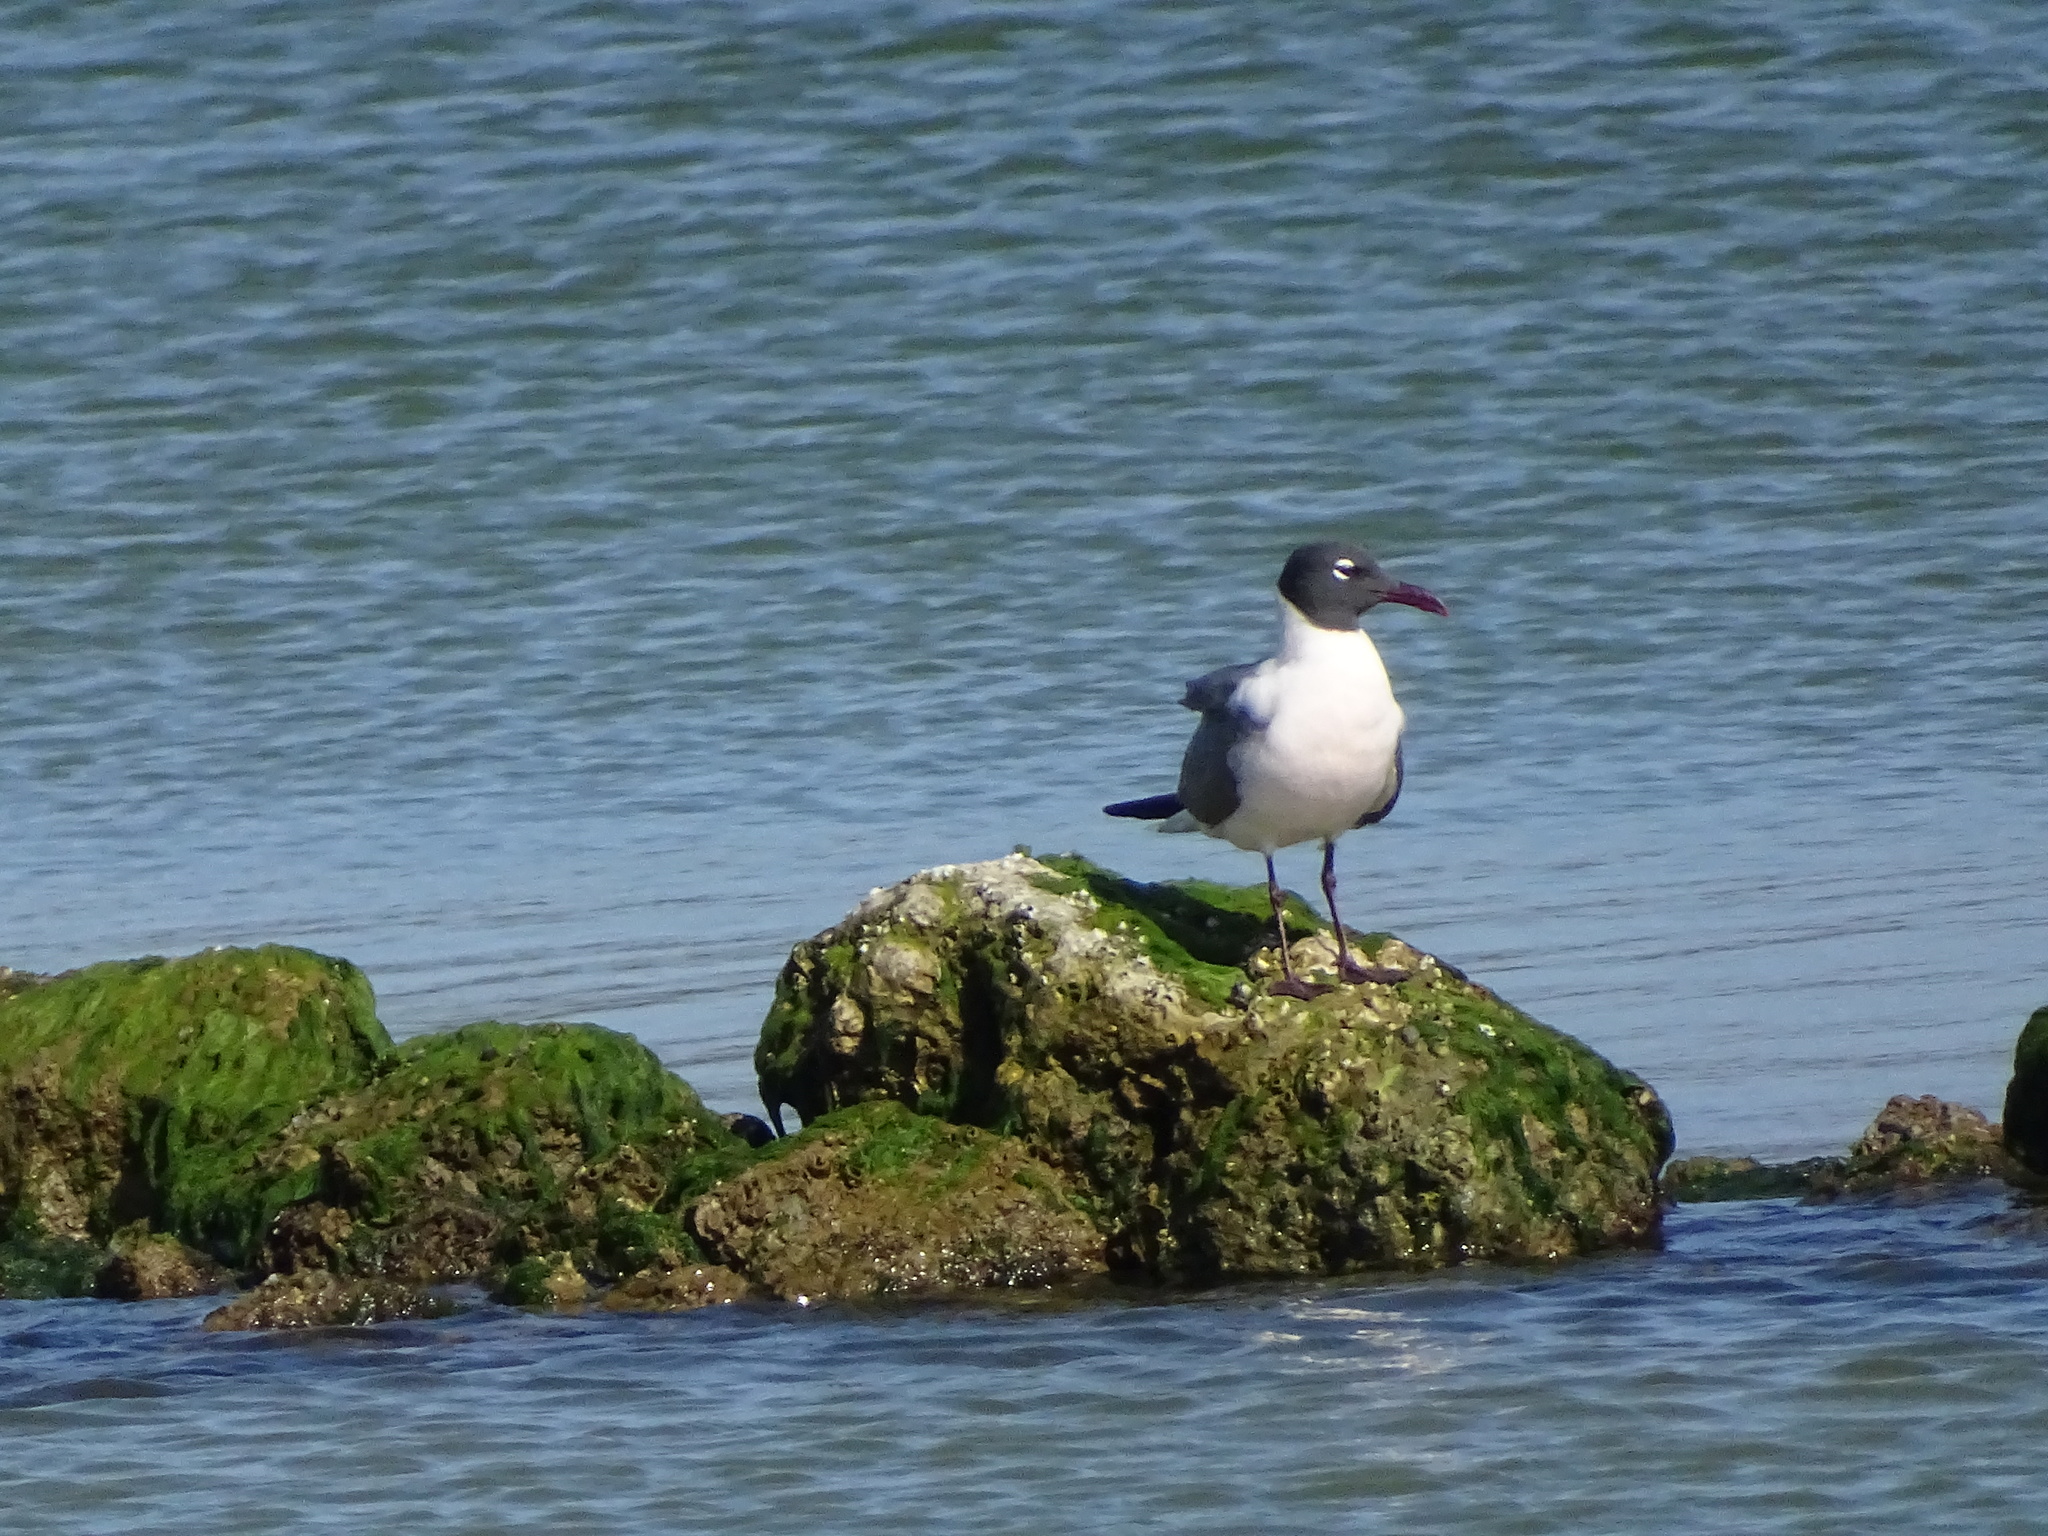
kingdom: Animalia
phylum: Chordata
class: Aves
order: Charadriiformes
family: Laridae
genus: Leucophaeus
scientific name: Leucophaeus atricilla
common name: Laughing gull
